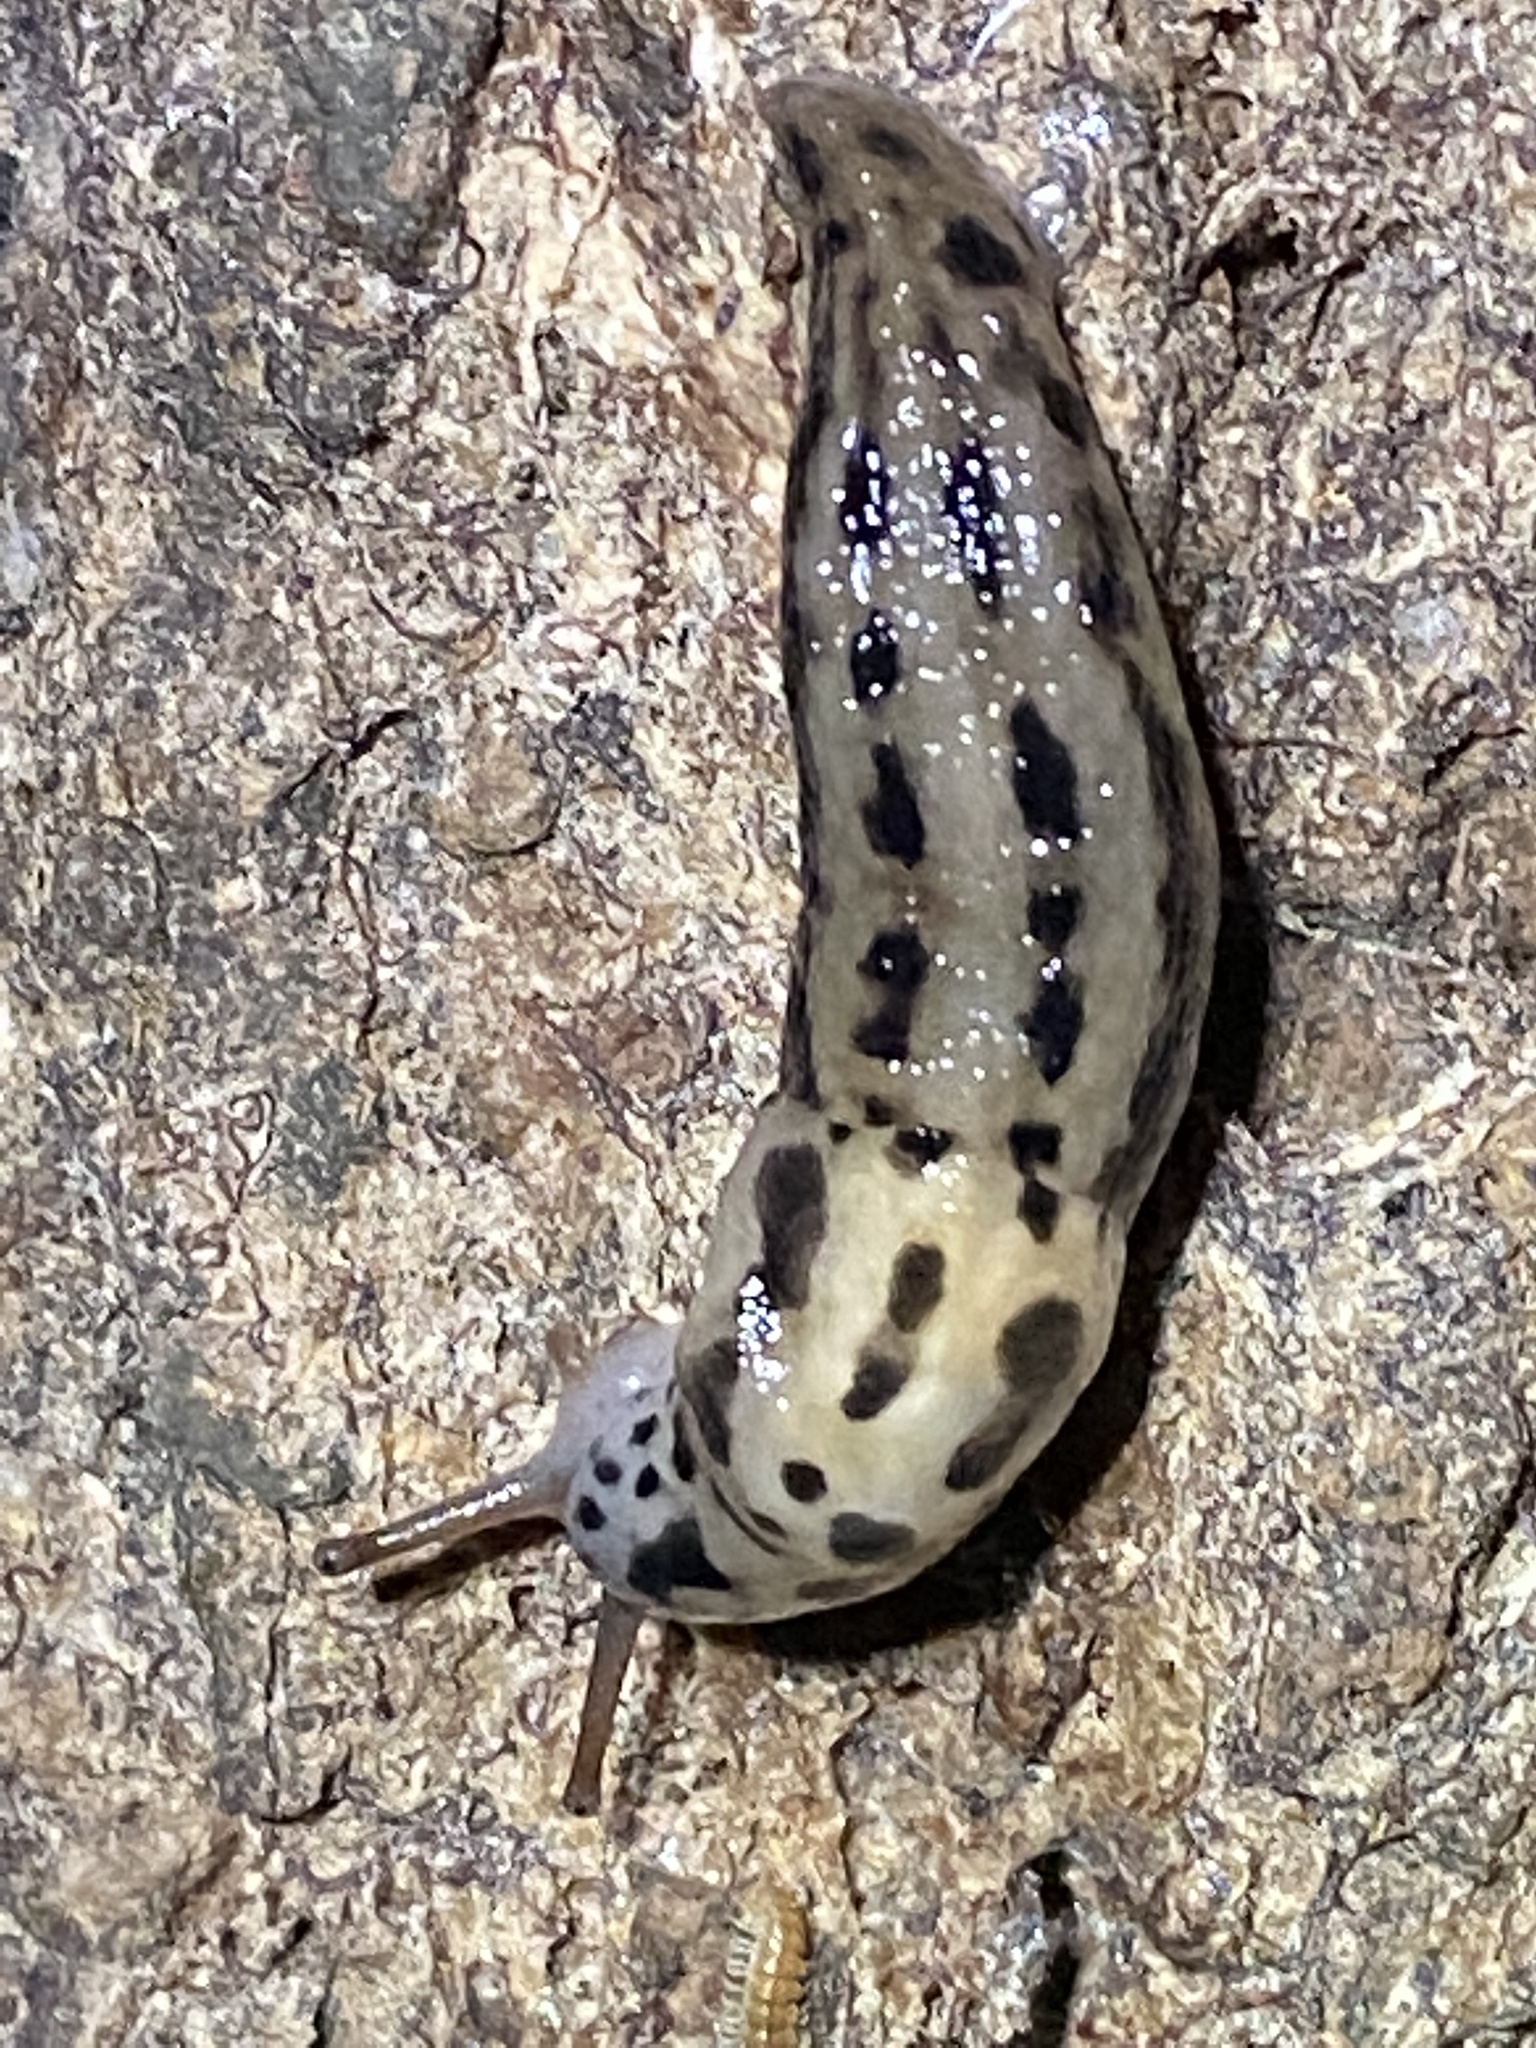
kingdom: Animalia
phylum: Mollusca
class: Gastropoda
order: Stylommatophora
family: Limacidae
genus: Limax
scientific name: Limax maximus
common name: Great grey slug
